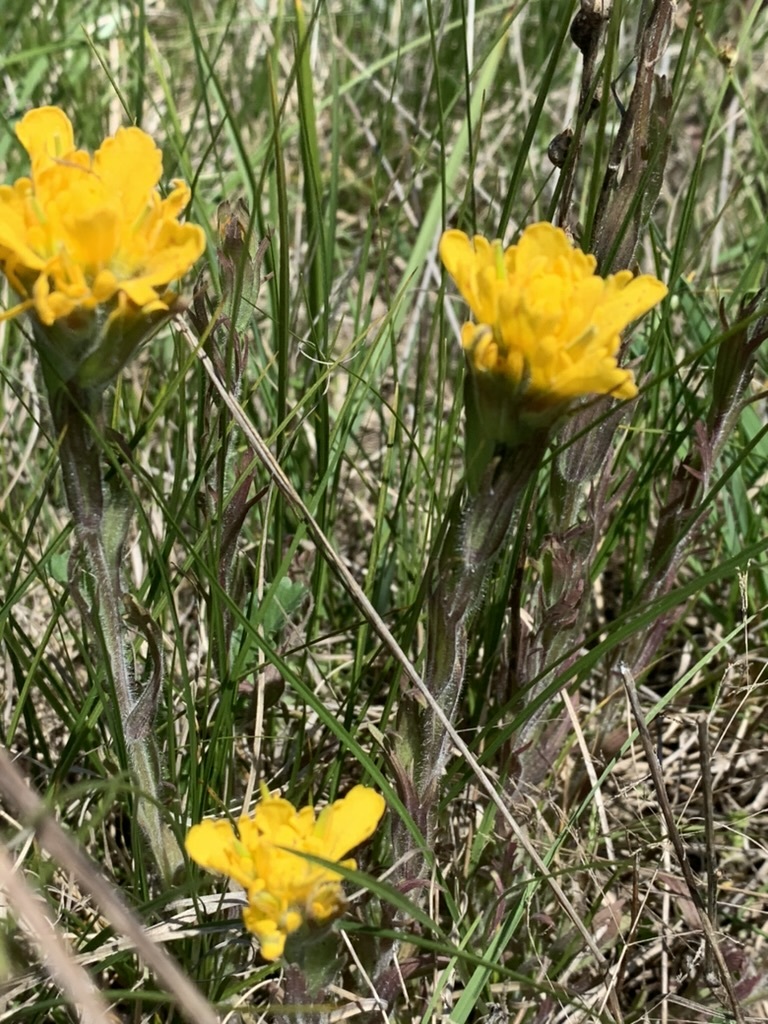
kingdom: Plantae
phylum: Tracheophyta
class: Magnoliopsida
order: Lamiales
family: Orobanchaceae
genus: Castilleja
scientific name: Castilleja levisecta
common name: Golden paintbrush
